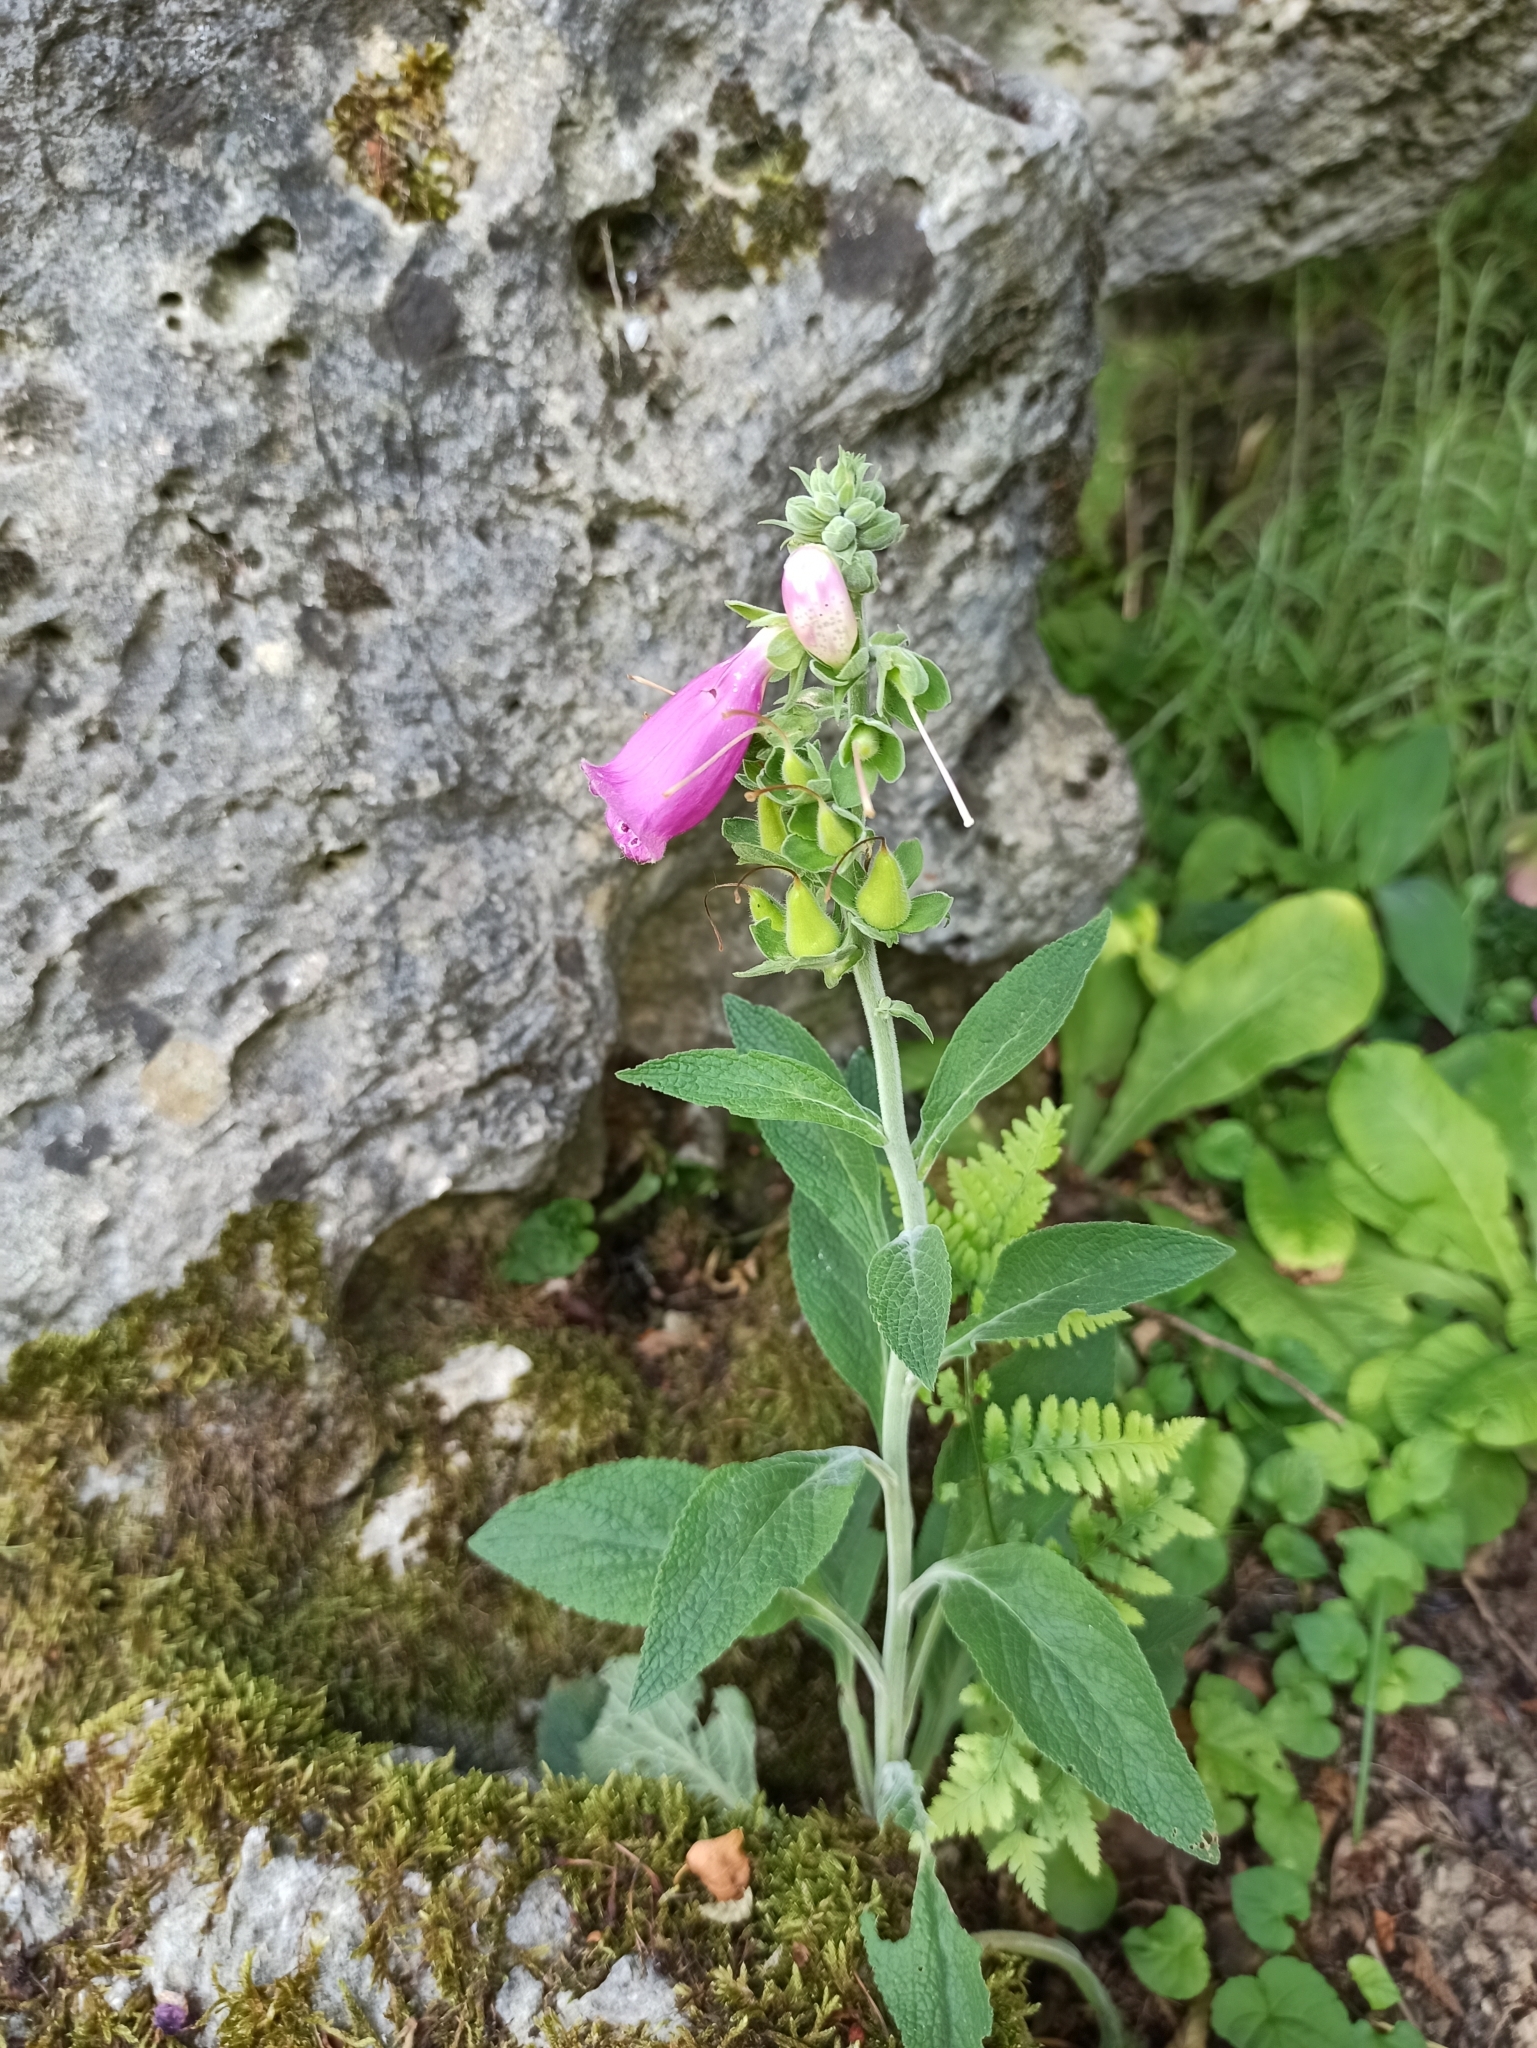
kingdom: Plantae
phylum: Tracheophyta
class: Magnoliopsida
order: Lamiales
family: Plantaginaceae
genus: Digitalis
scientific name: Digitalis purpurea
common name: Foxglove
